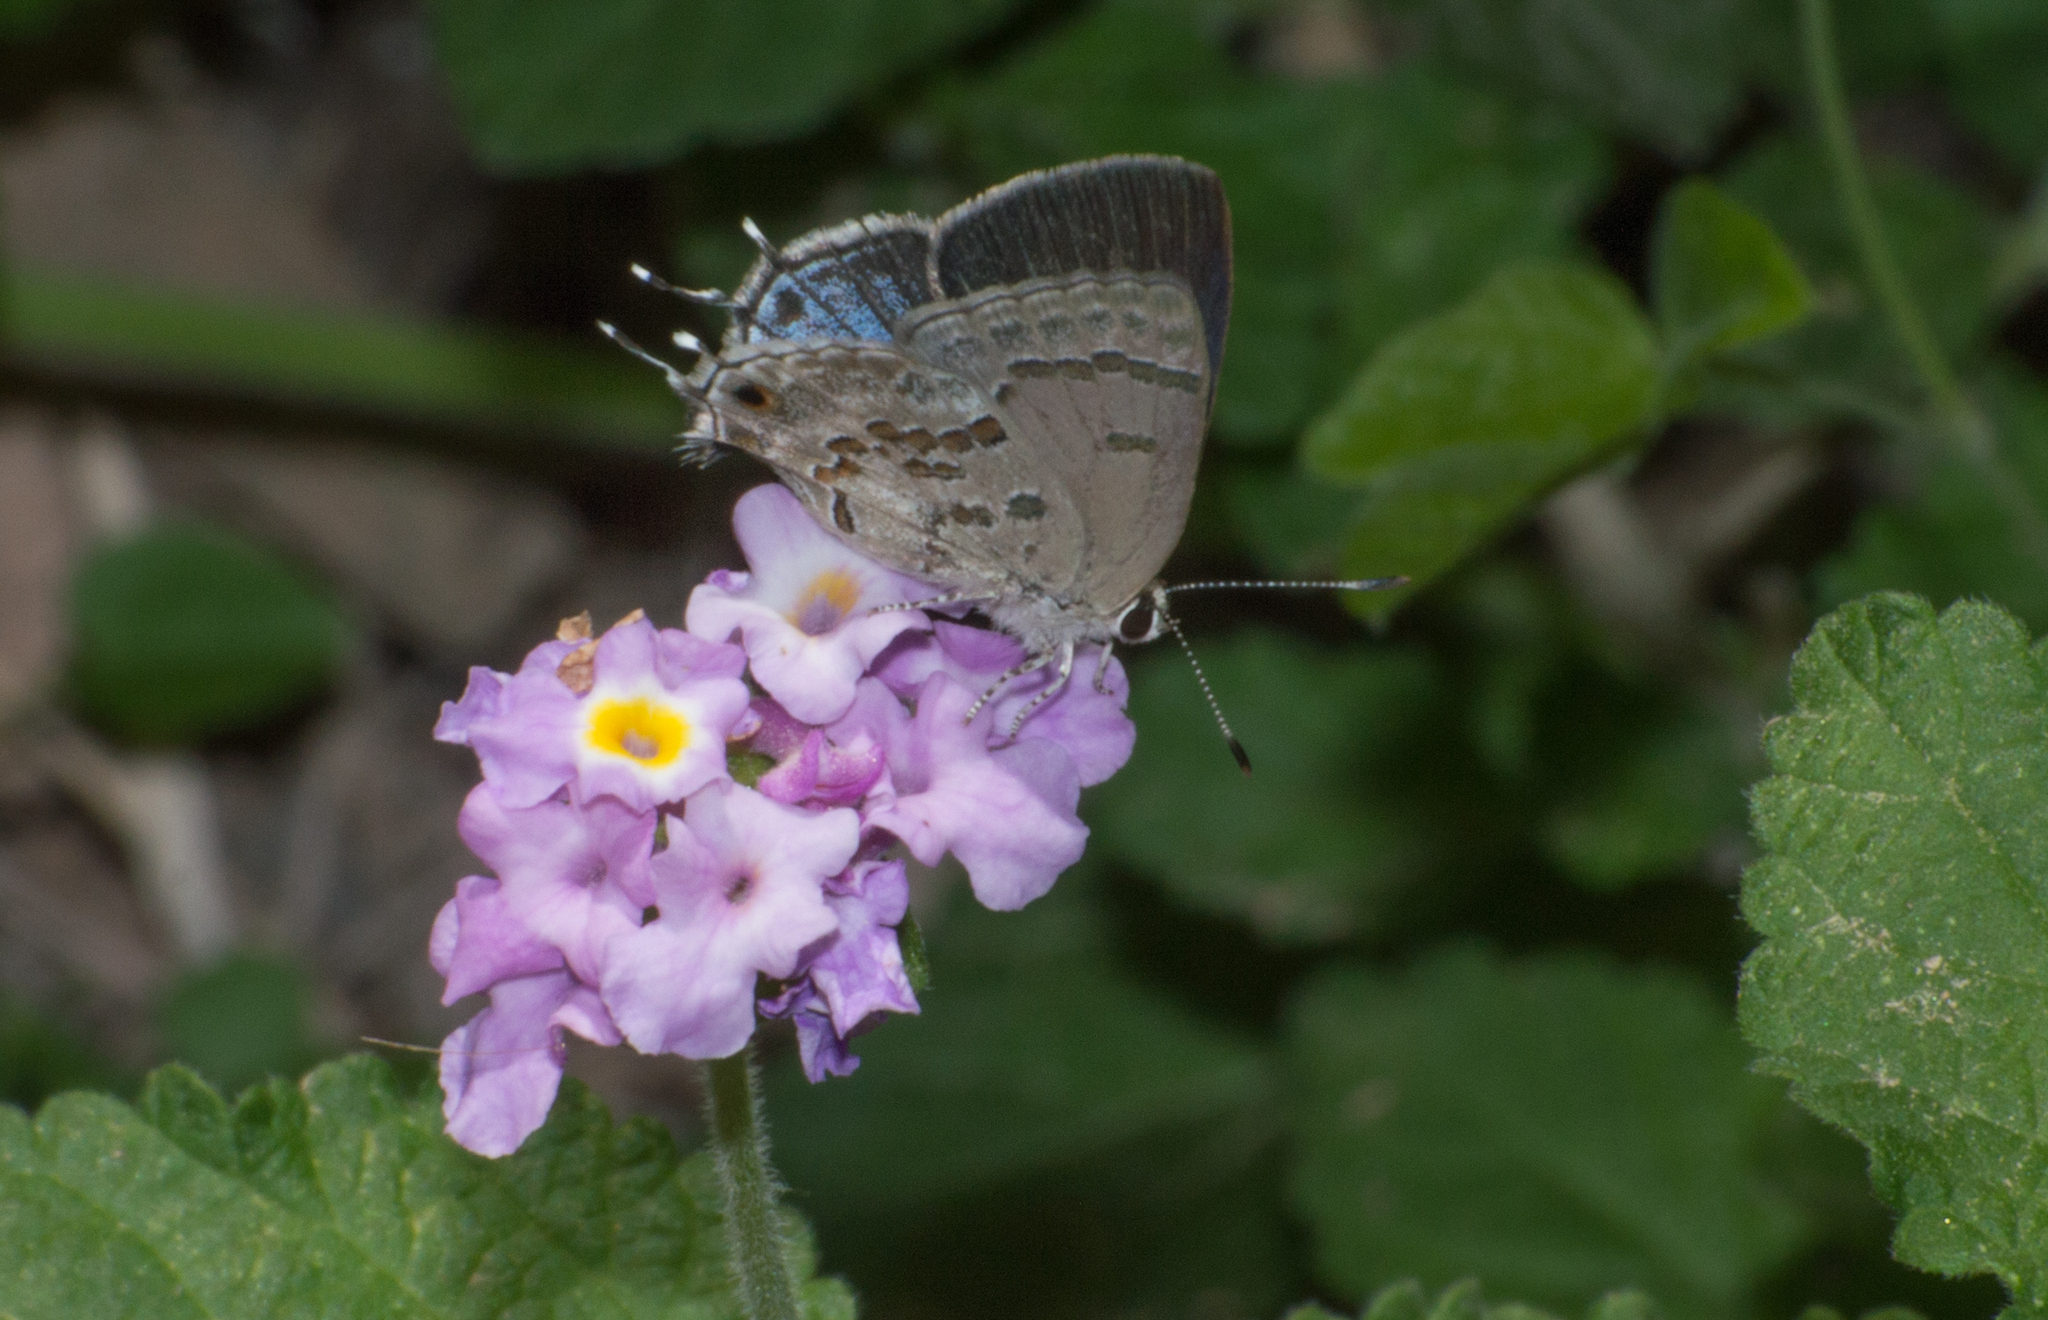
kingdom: Animalia
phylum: Arthropoda
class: Insecta
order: Lepidoptera
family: Lycaenidae
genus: Strymon
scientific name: Strymon lucena
